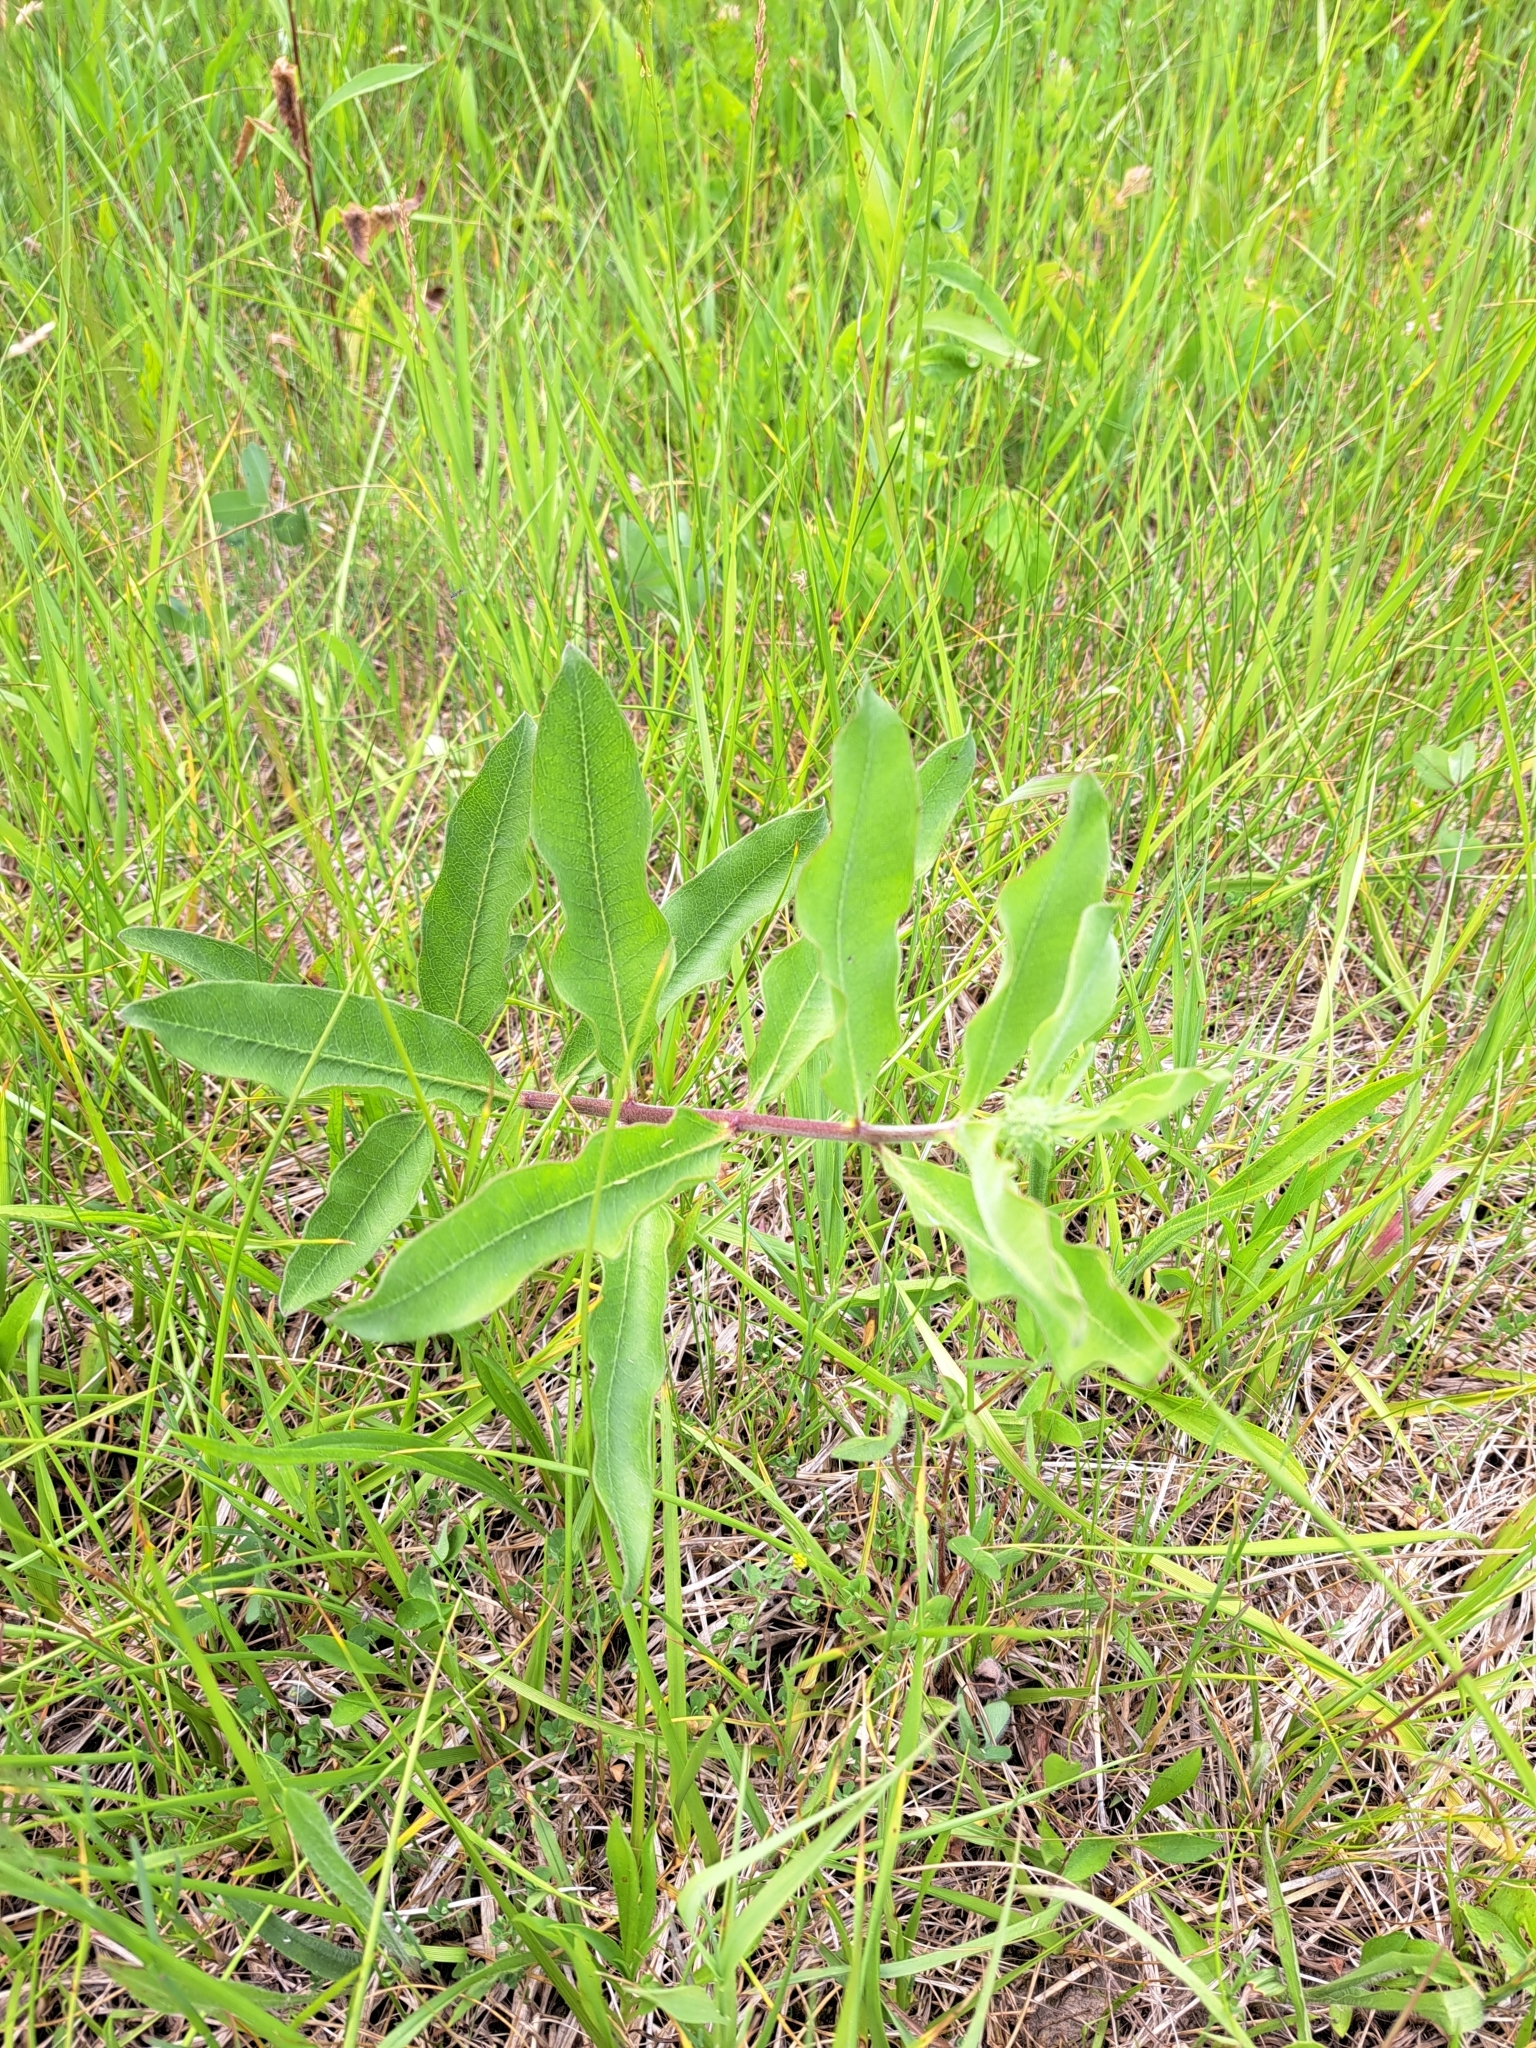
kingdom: Plantae
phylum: Tracheophyta
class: Magnoliopsida
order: Gentianales
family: Apocynaceae
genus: Asclepias
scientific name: Asclepias viridiflora
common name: Green comet milkweed
